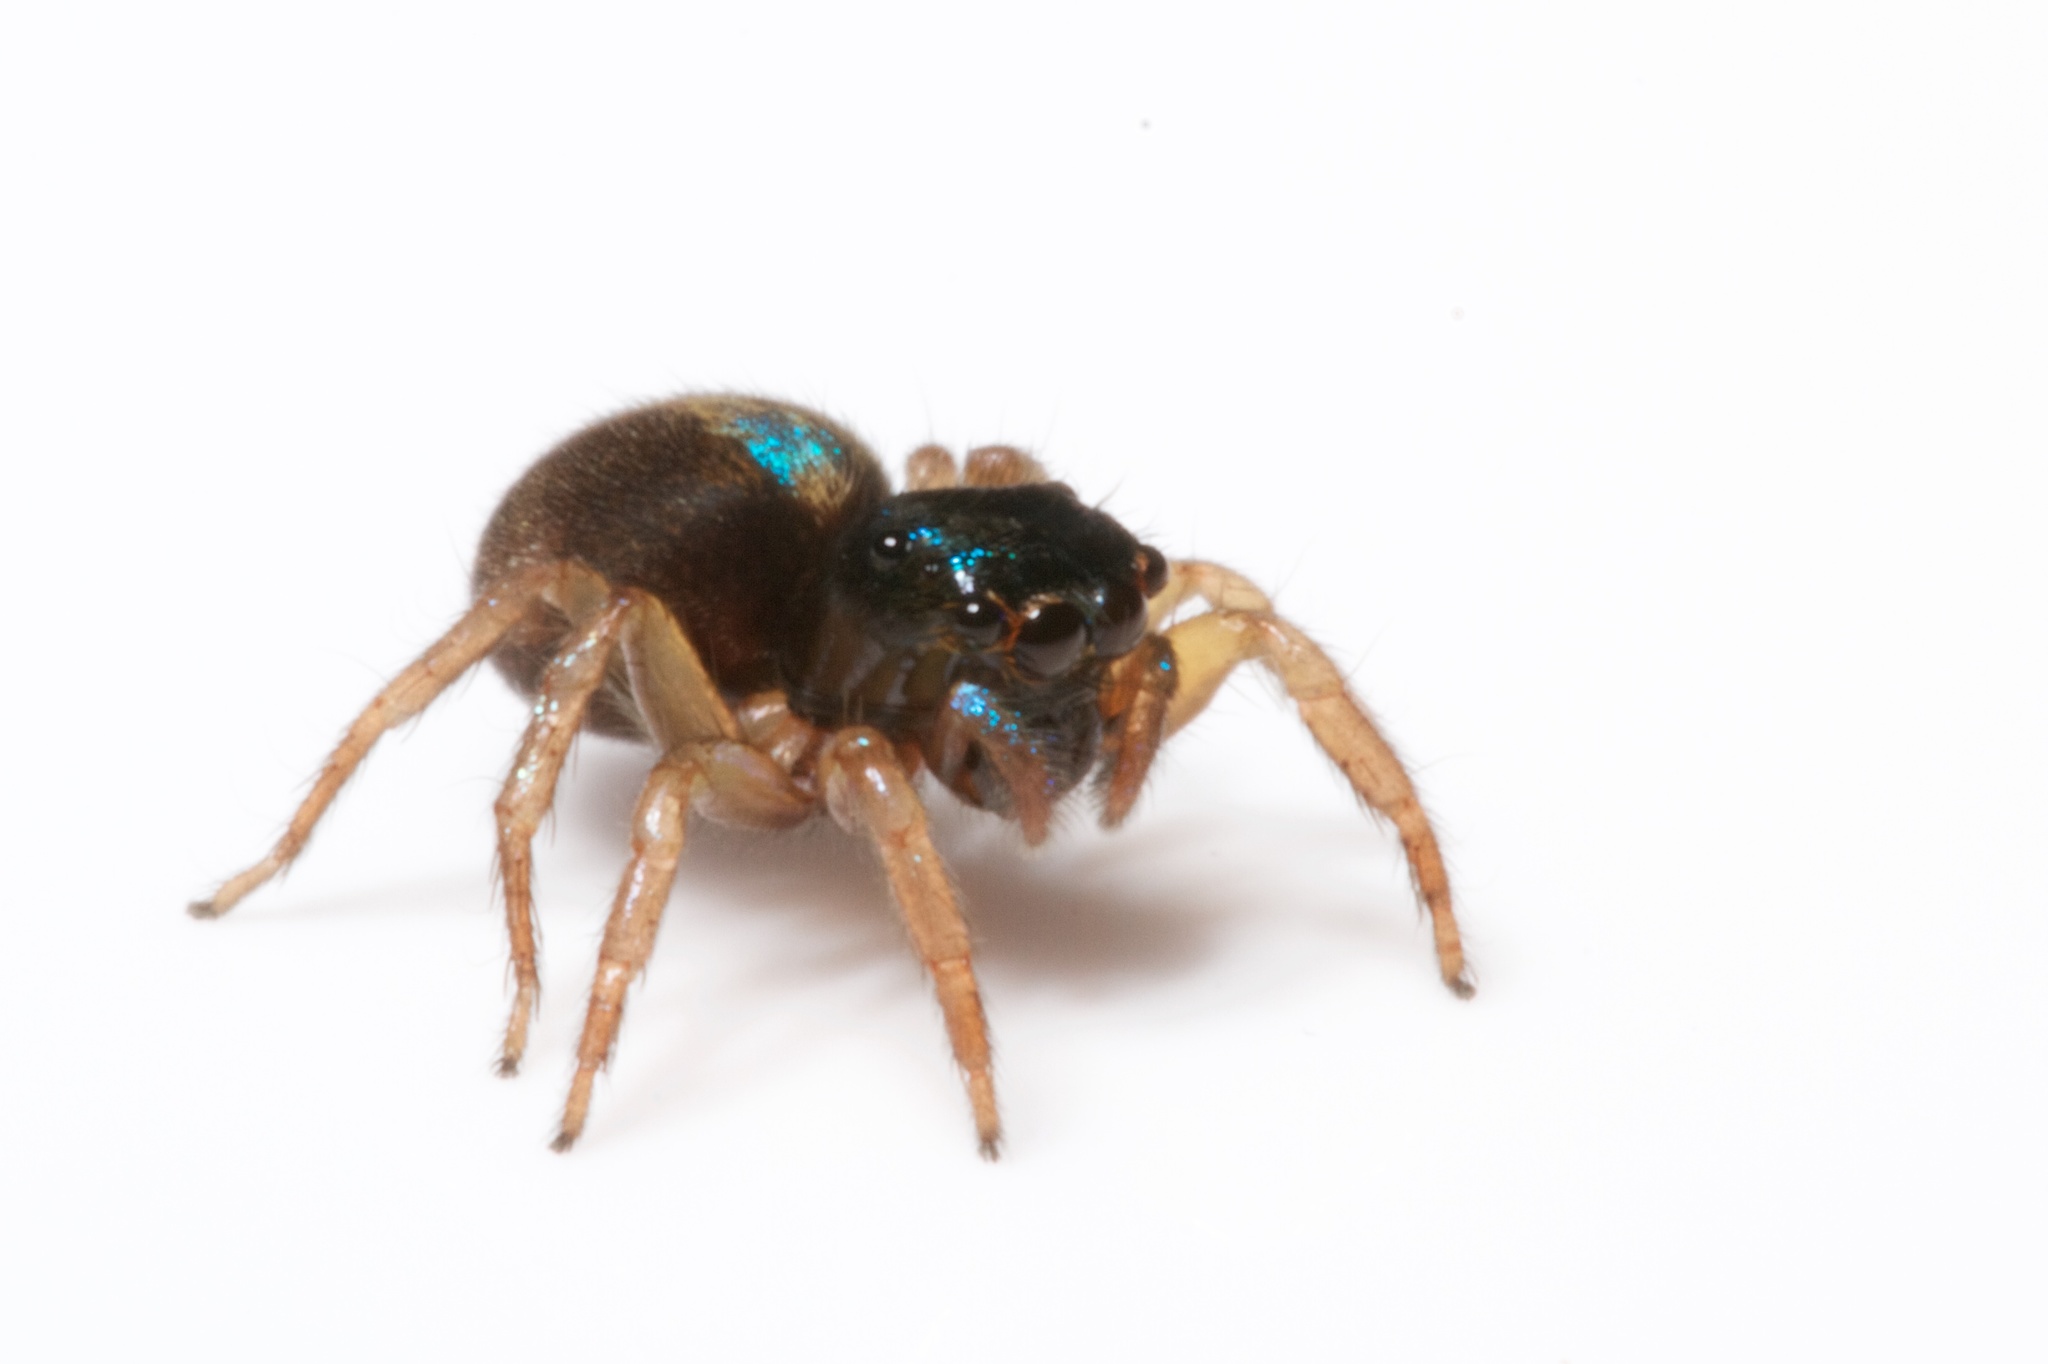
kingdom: Animalia
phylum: Arthropoda
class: Arachnida
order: Araneae
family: Salticidae
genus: Anasaitis
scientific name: Anasaitis canalis
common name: Jumping spiders
